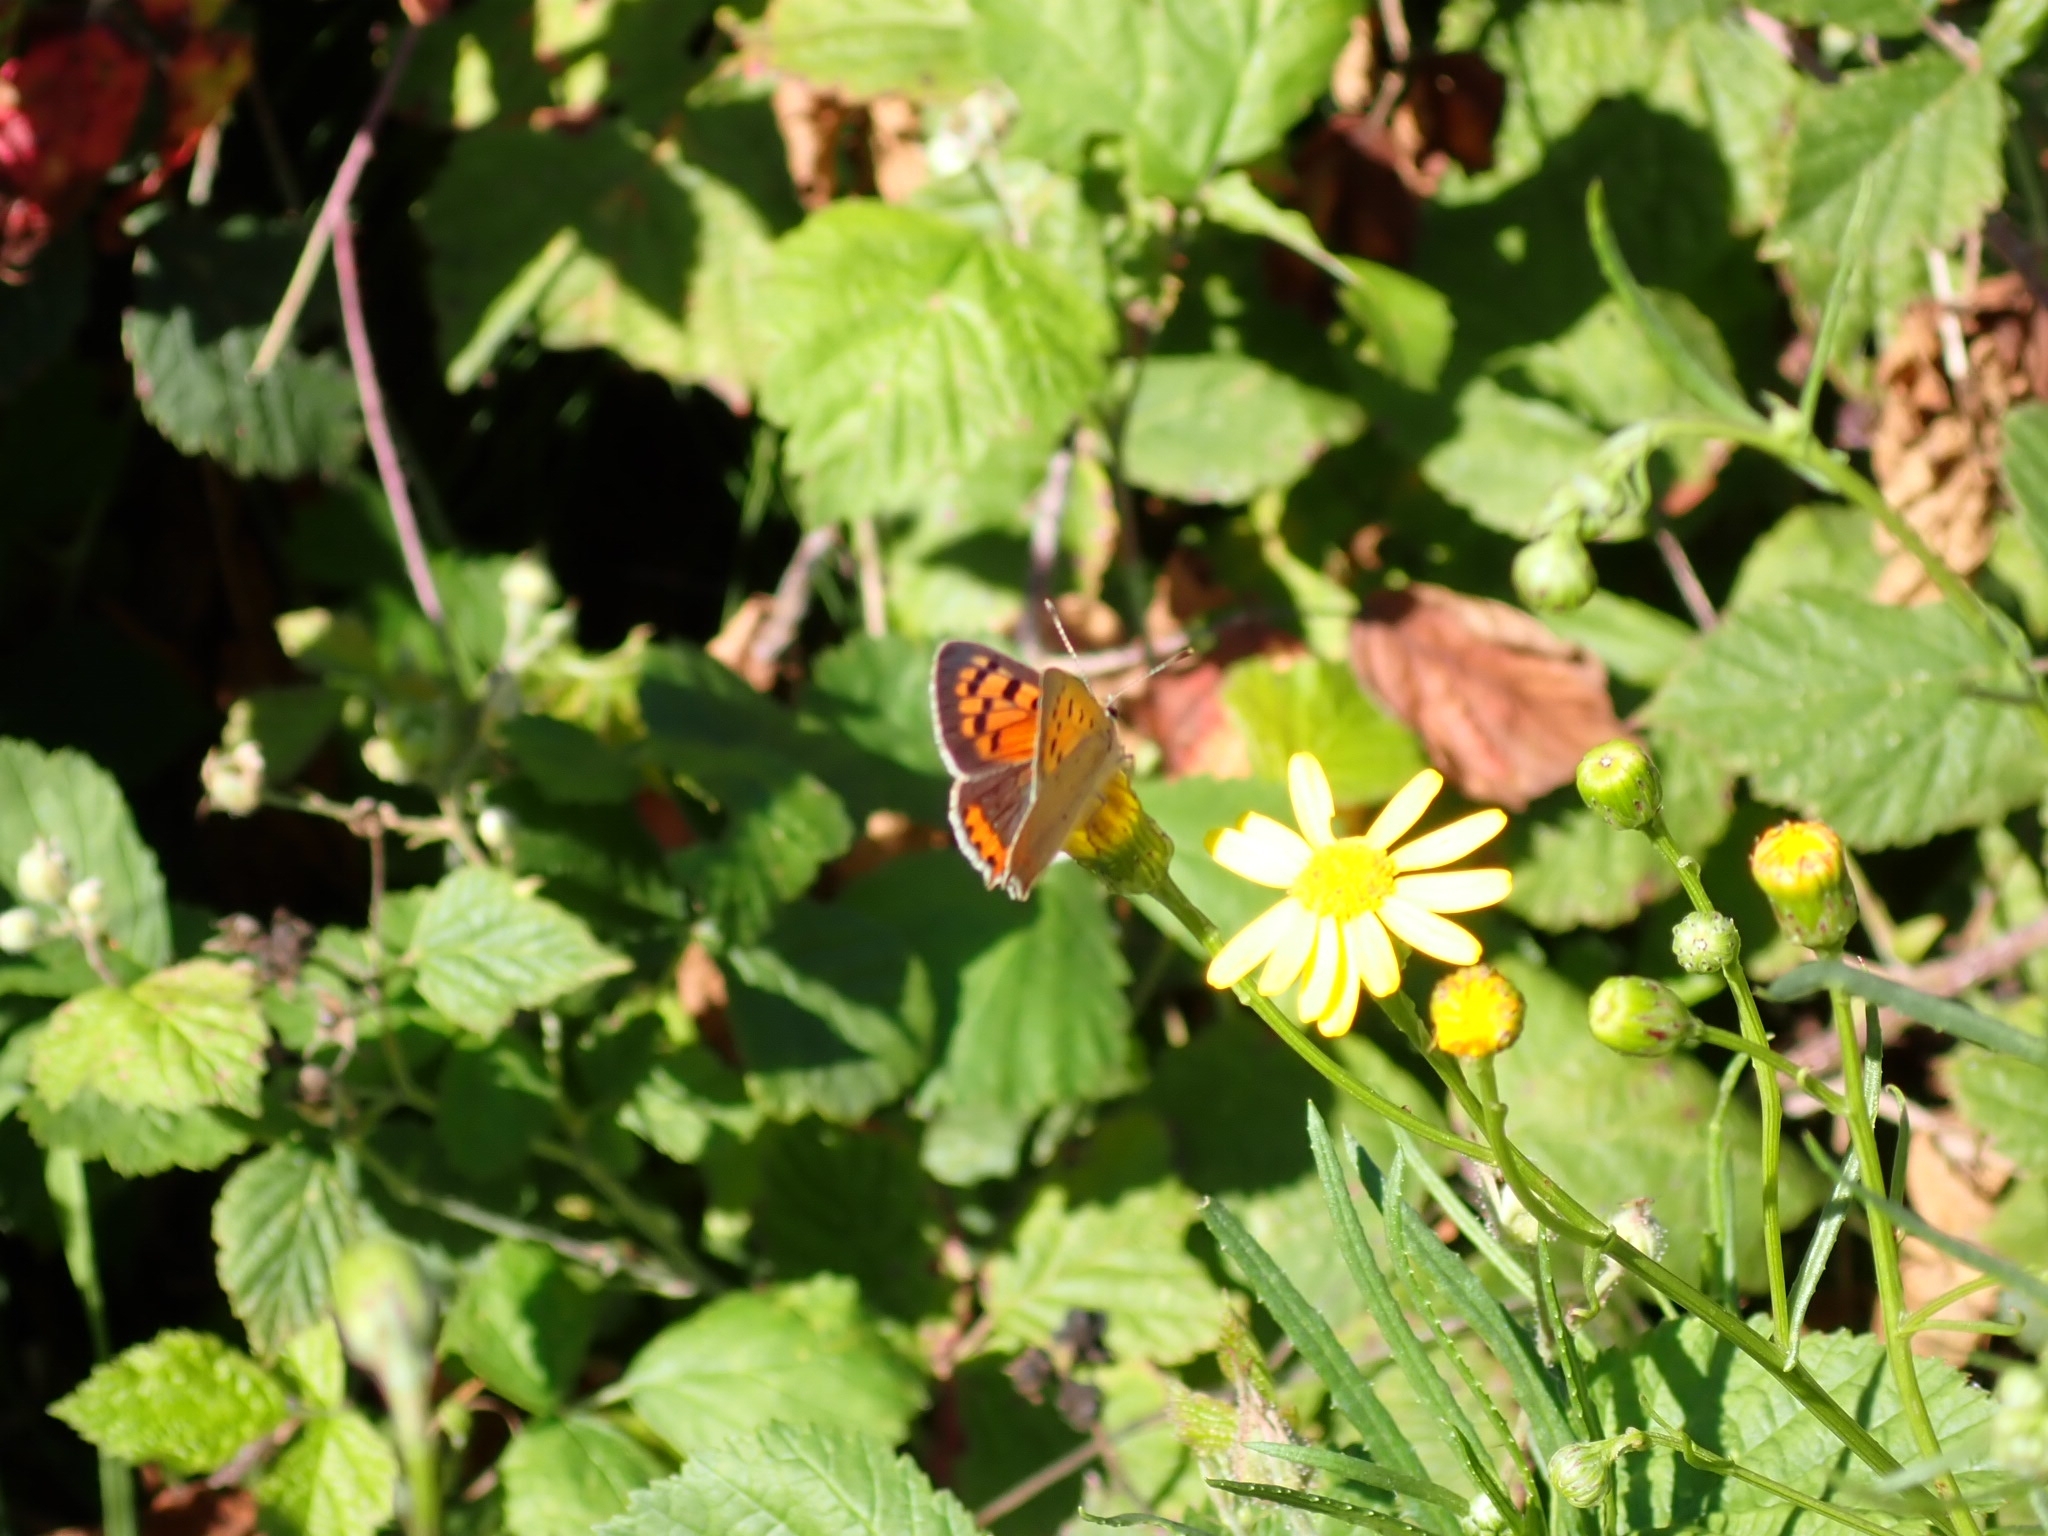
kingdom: Animalia
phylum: Arthropoda
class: Insecta
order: Lepidoptera
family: Lycaenidae
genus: Lycaena
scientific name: Lycaena phlaeas
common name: Small copper
